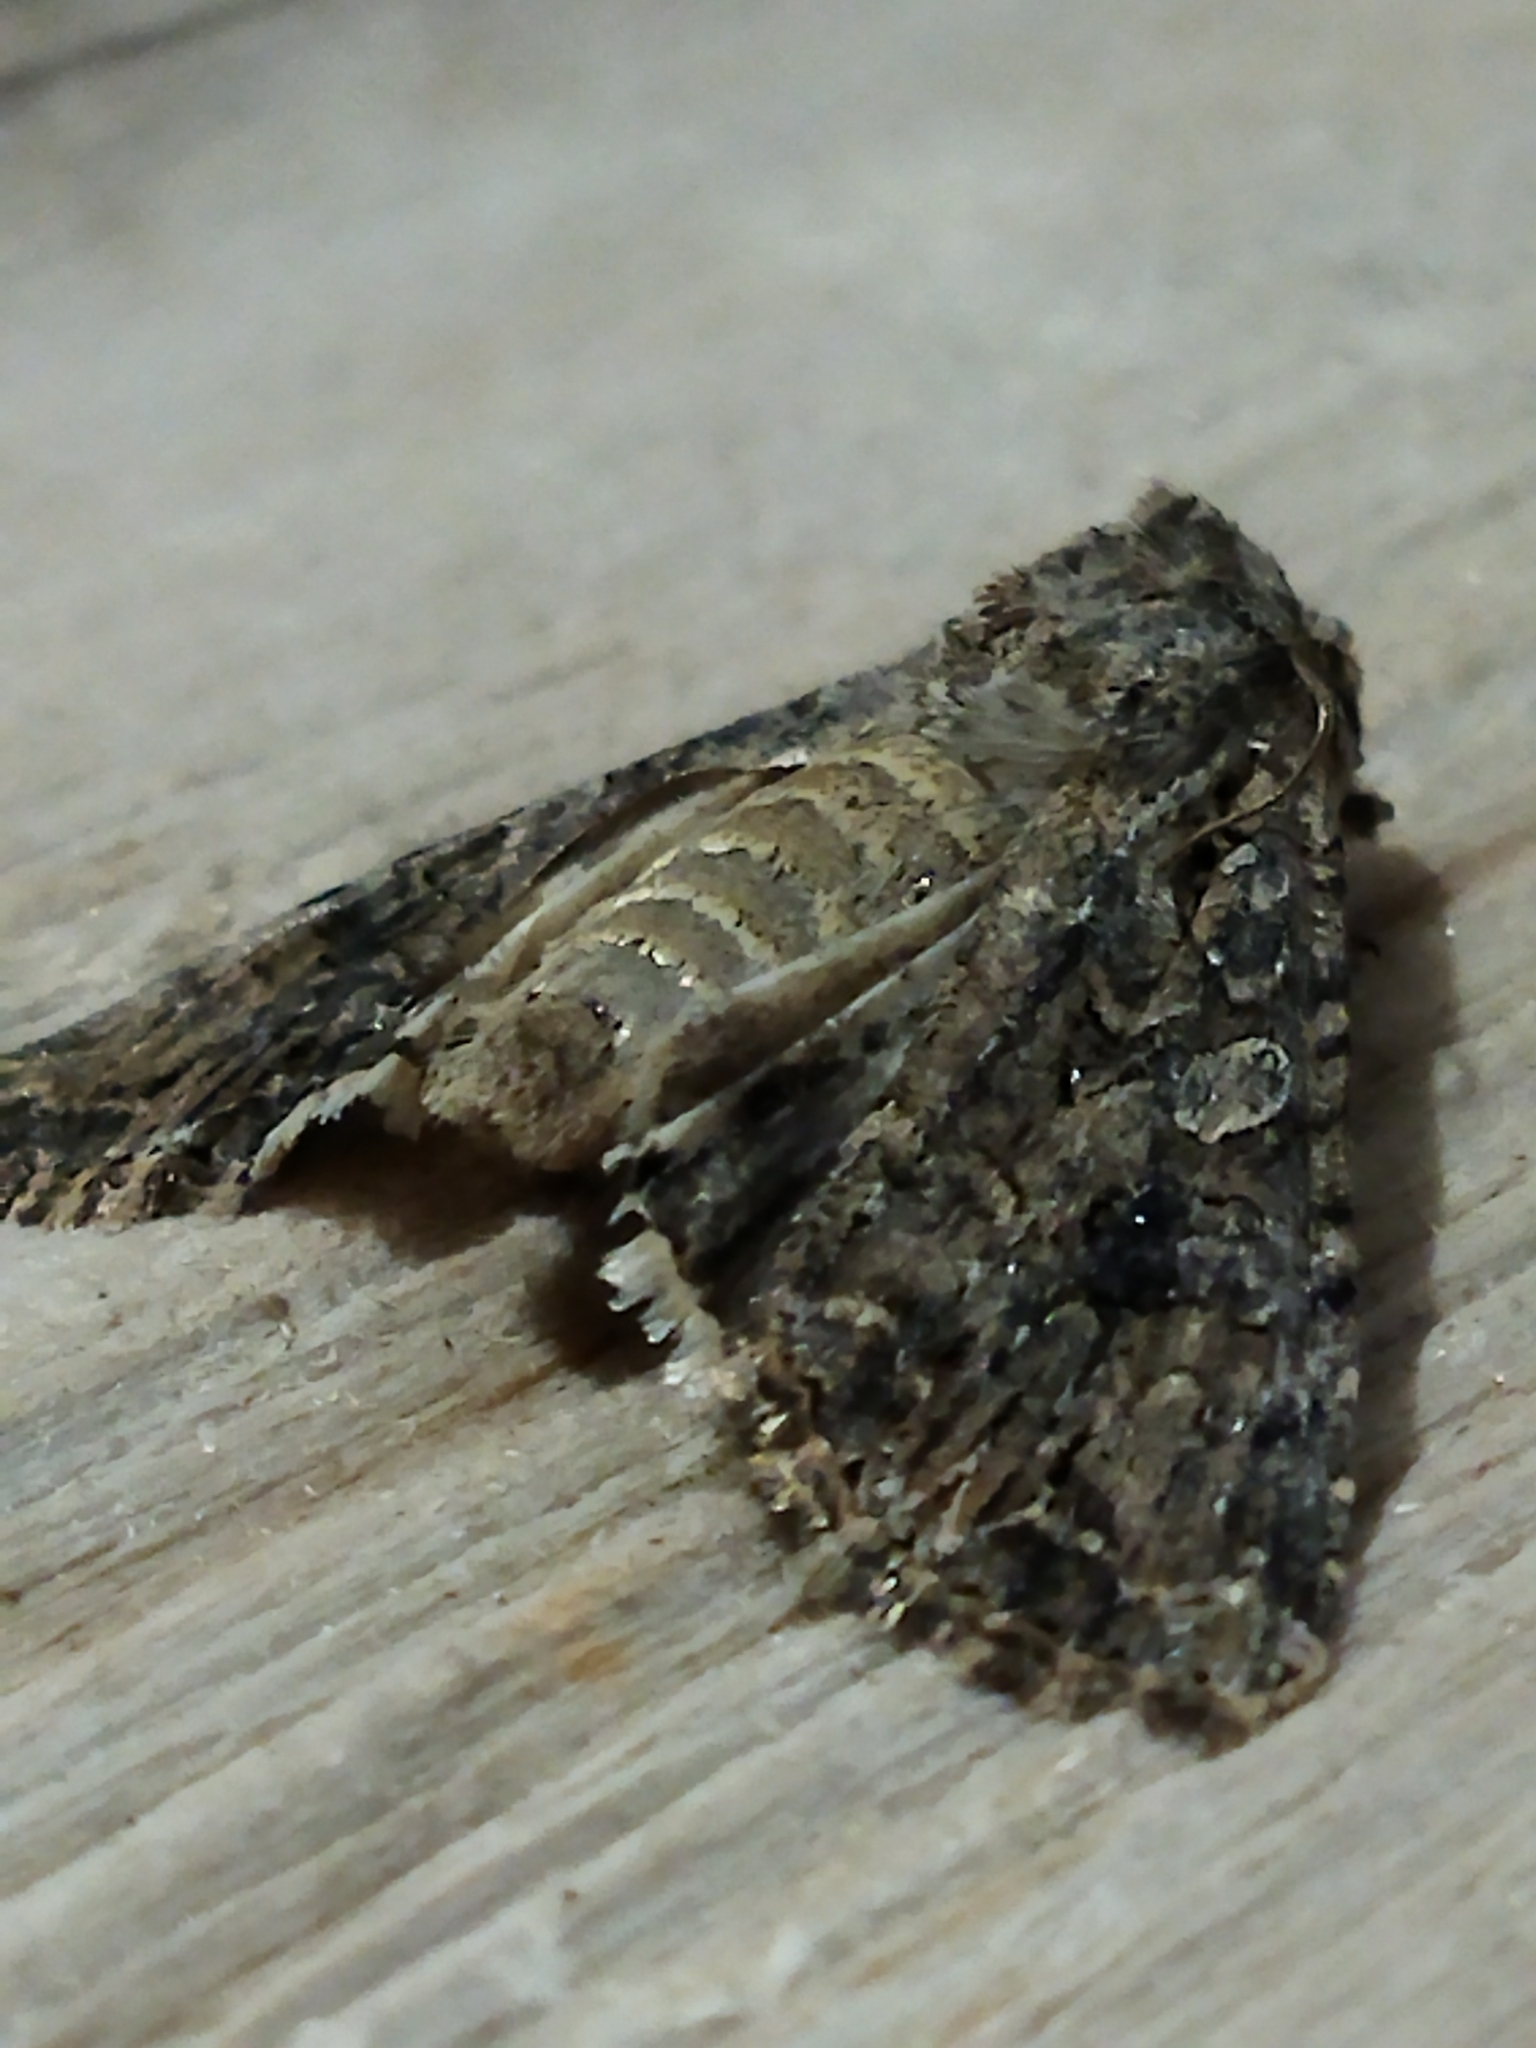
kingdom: Animalia
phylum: Arthropoda
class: Insecta
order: Lepidoptera
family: Noctuidae
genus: Anarta
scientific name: Anarta trifolii
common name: Clover cutworm moth
